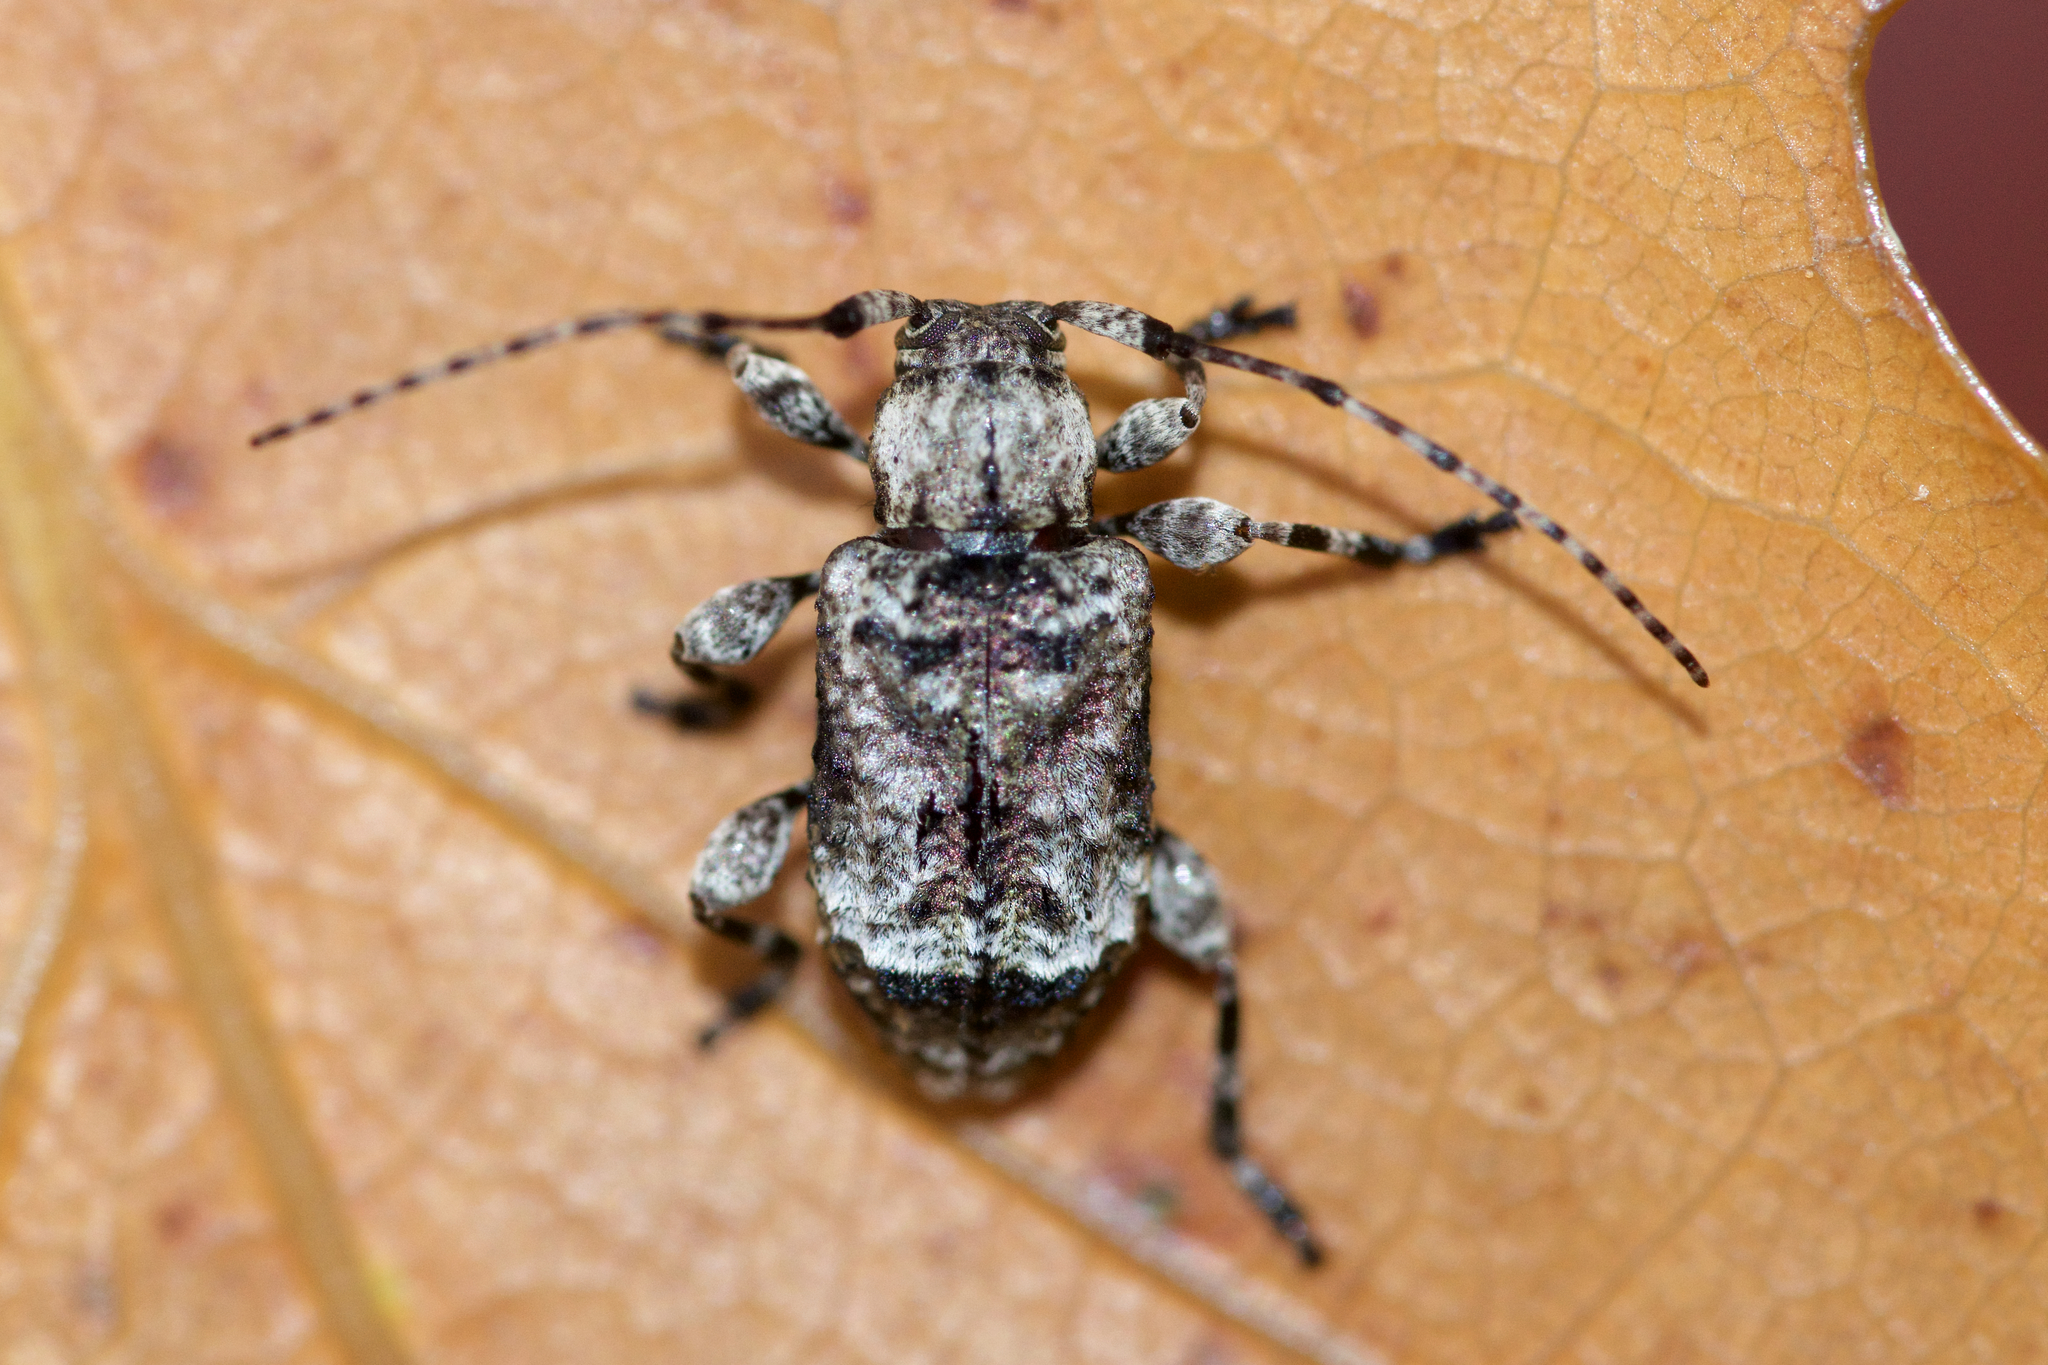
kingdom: Animalia
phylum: Arthropoda
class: Insecta
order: Coleoptera
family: Cerambycidae
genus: Leptostylus
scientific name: Leptostylus transversus
